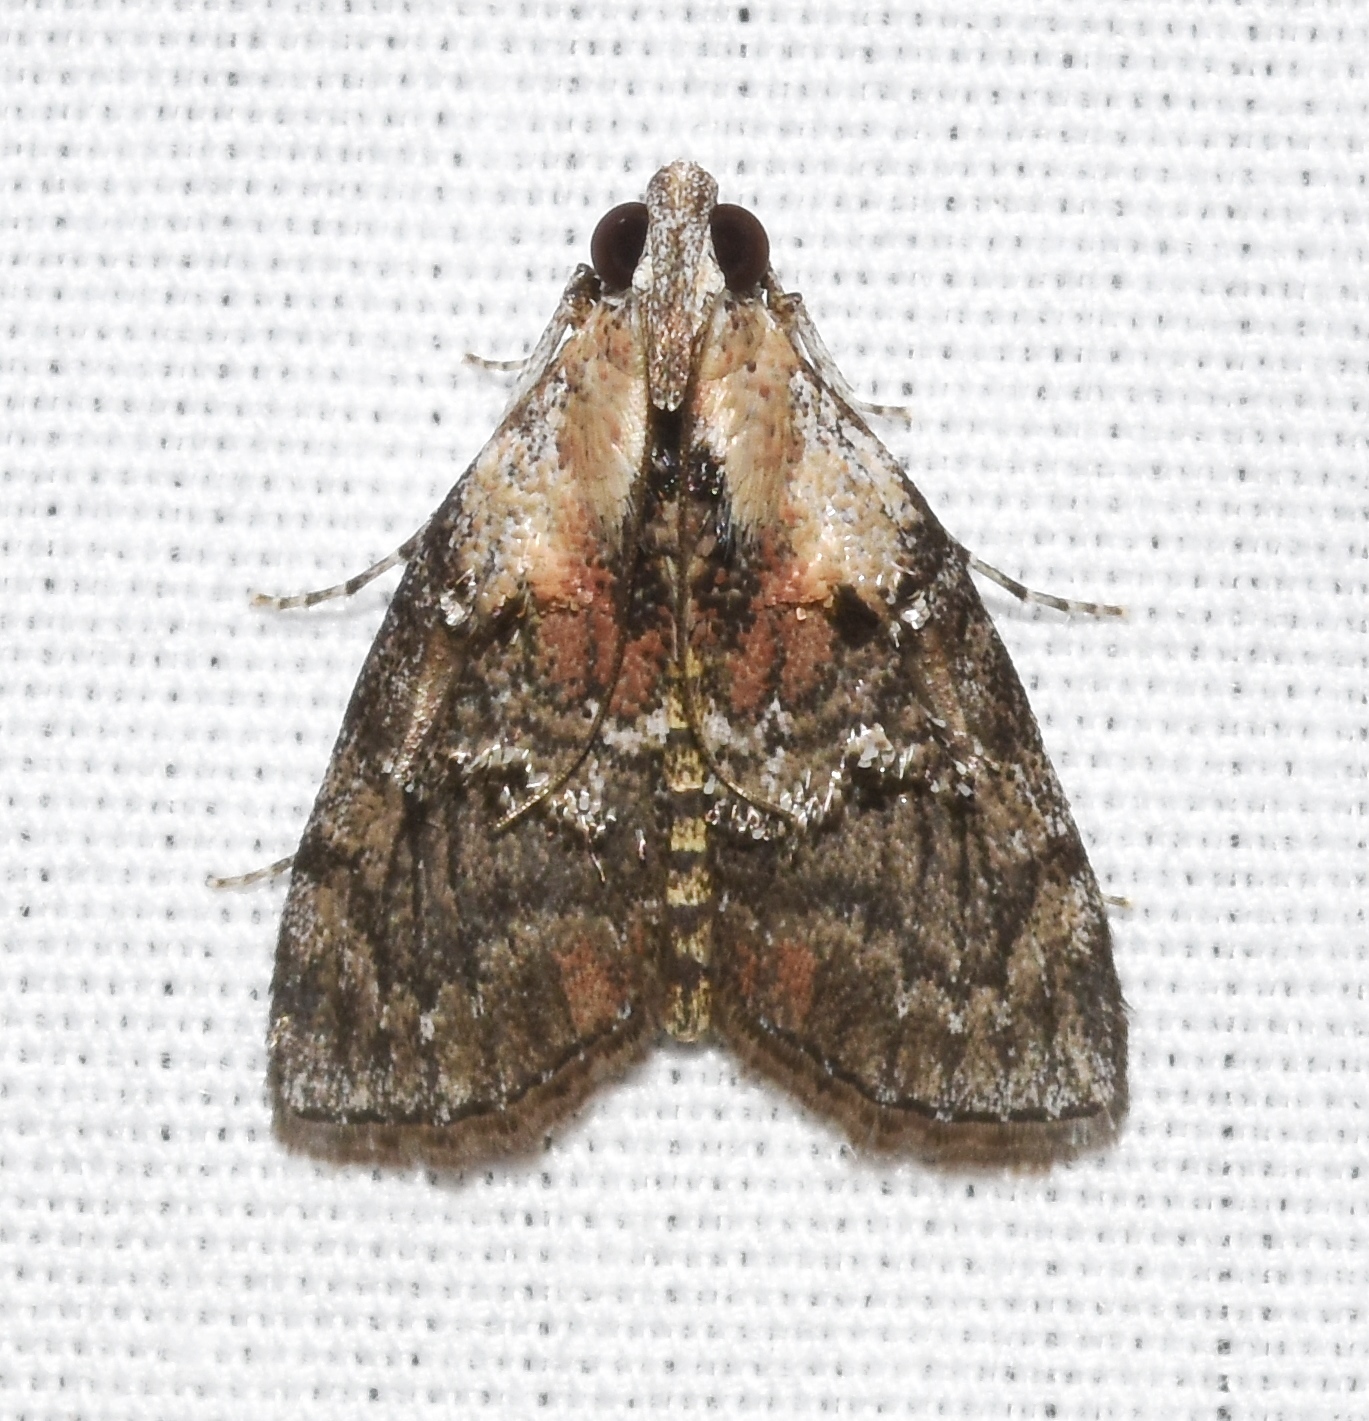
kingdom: Animalia
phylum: Arthropoda
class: Insecta
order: Lepidoptera
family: Pyralidae
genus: Pococera
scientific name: Pococera expandens
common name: Striped oak webworm moth
